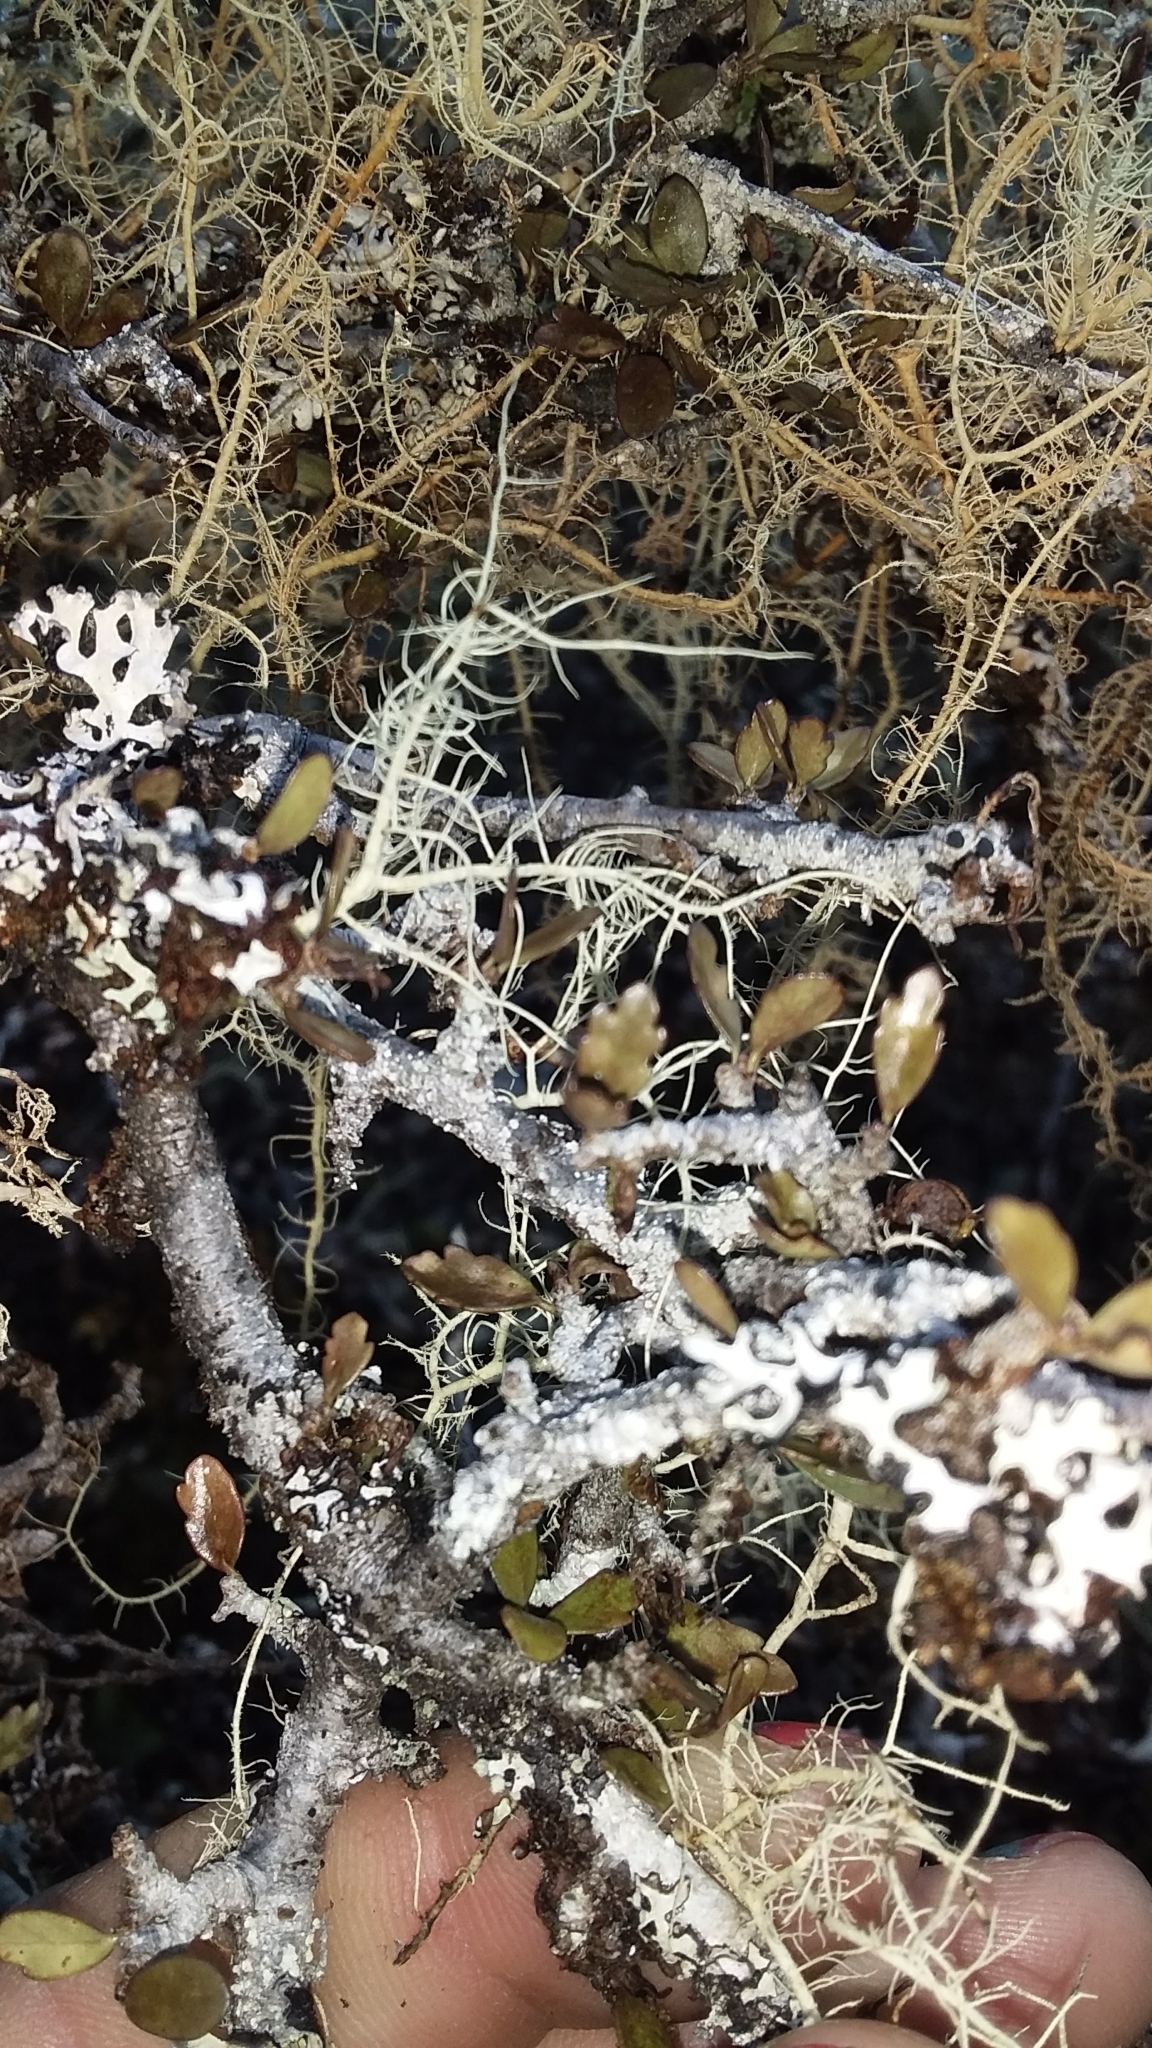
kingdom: Plantae
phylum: Tracheophyta
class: Magnoliopsida
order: Apiales
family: Pittosporaceae
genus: Pittosporum
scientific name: Pittosporum rigidum
